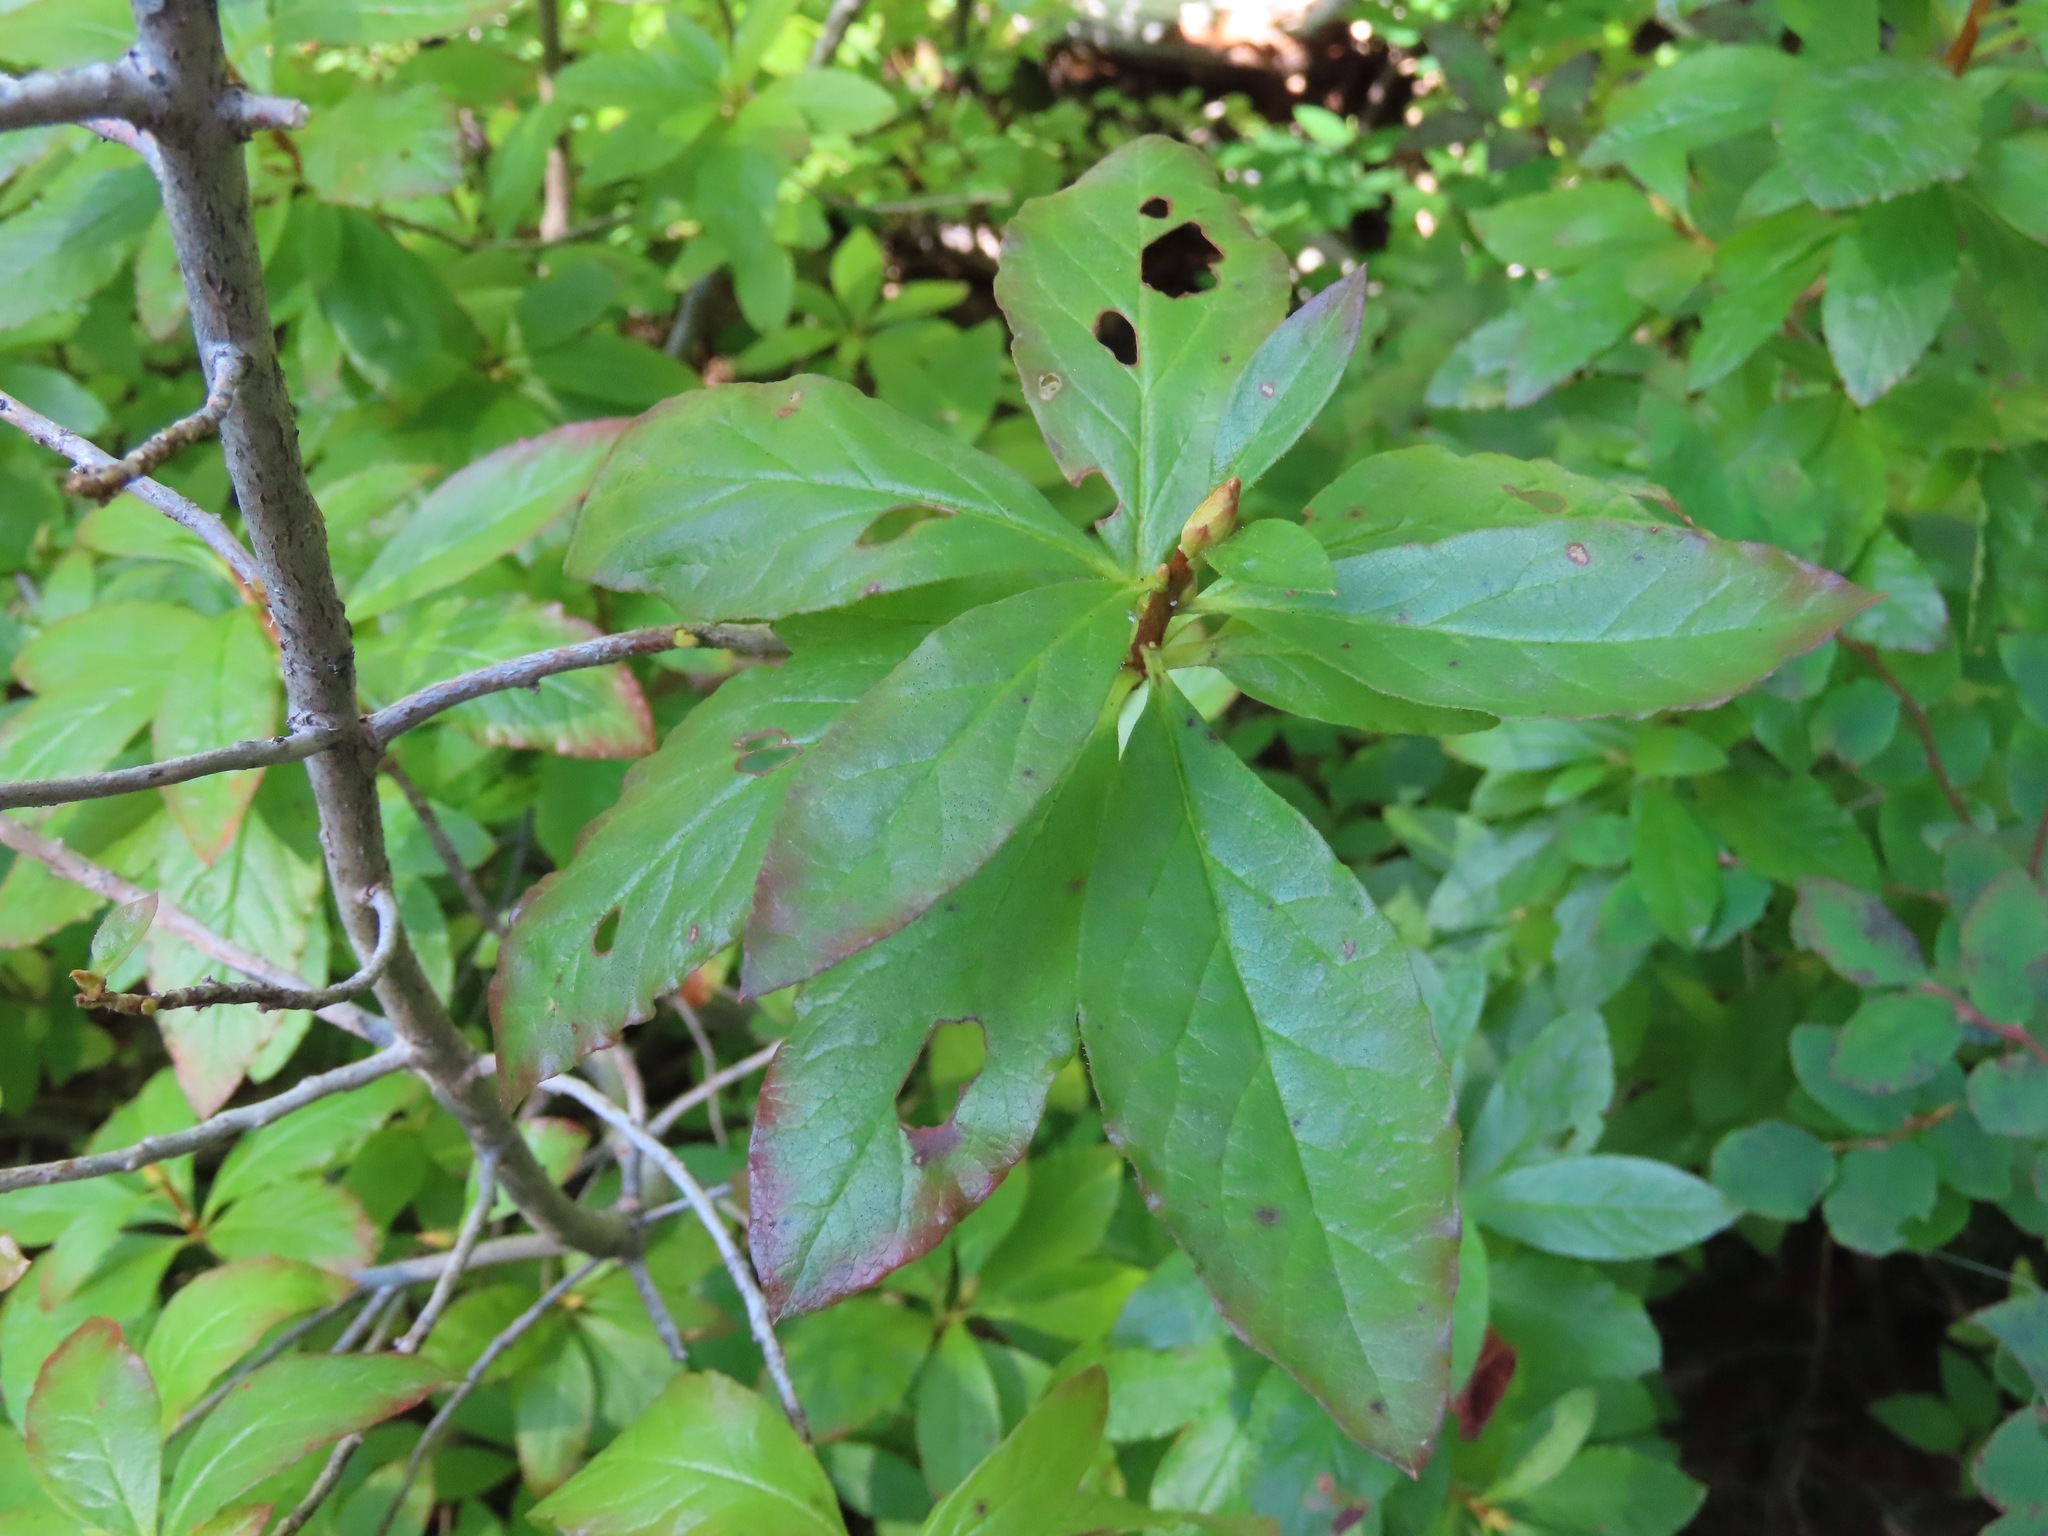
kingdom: Plantae
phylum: Tracheophyta
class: Magnoliopsida
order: Ericales
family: Ericaceae
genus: Rhododendron
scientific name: Rhododendron albiflorum
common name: White rhododendron
